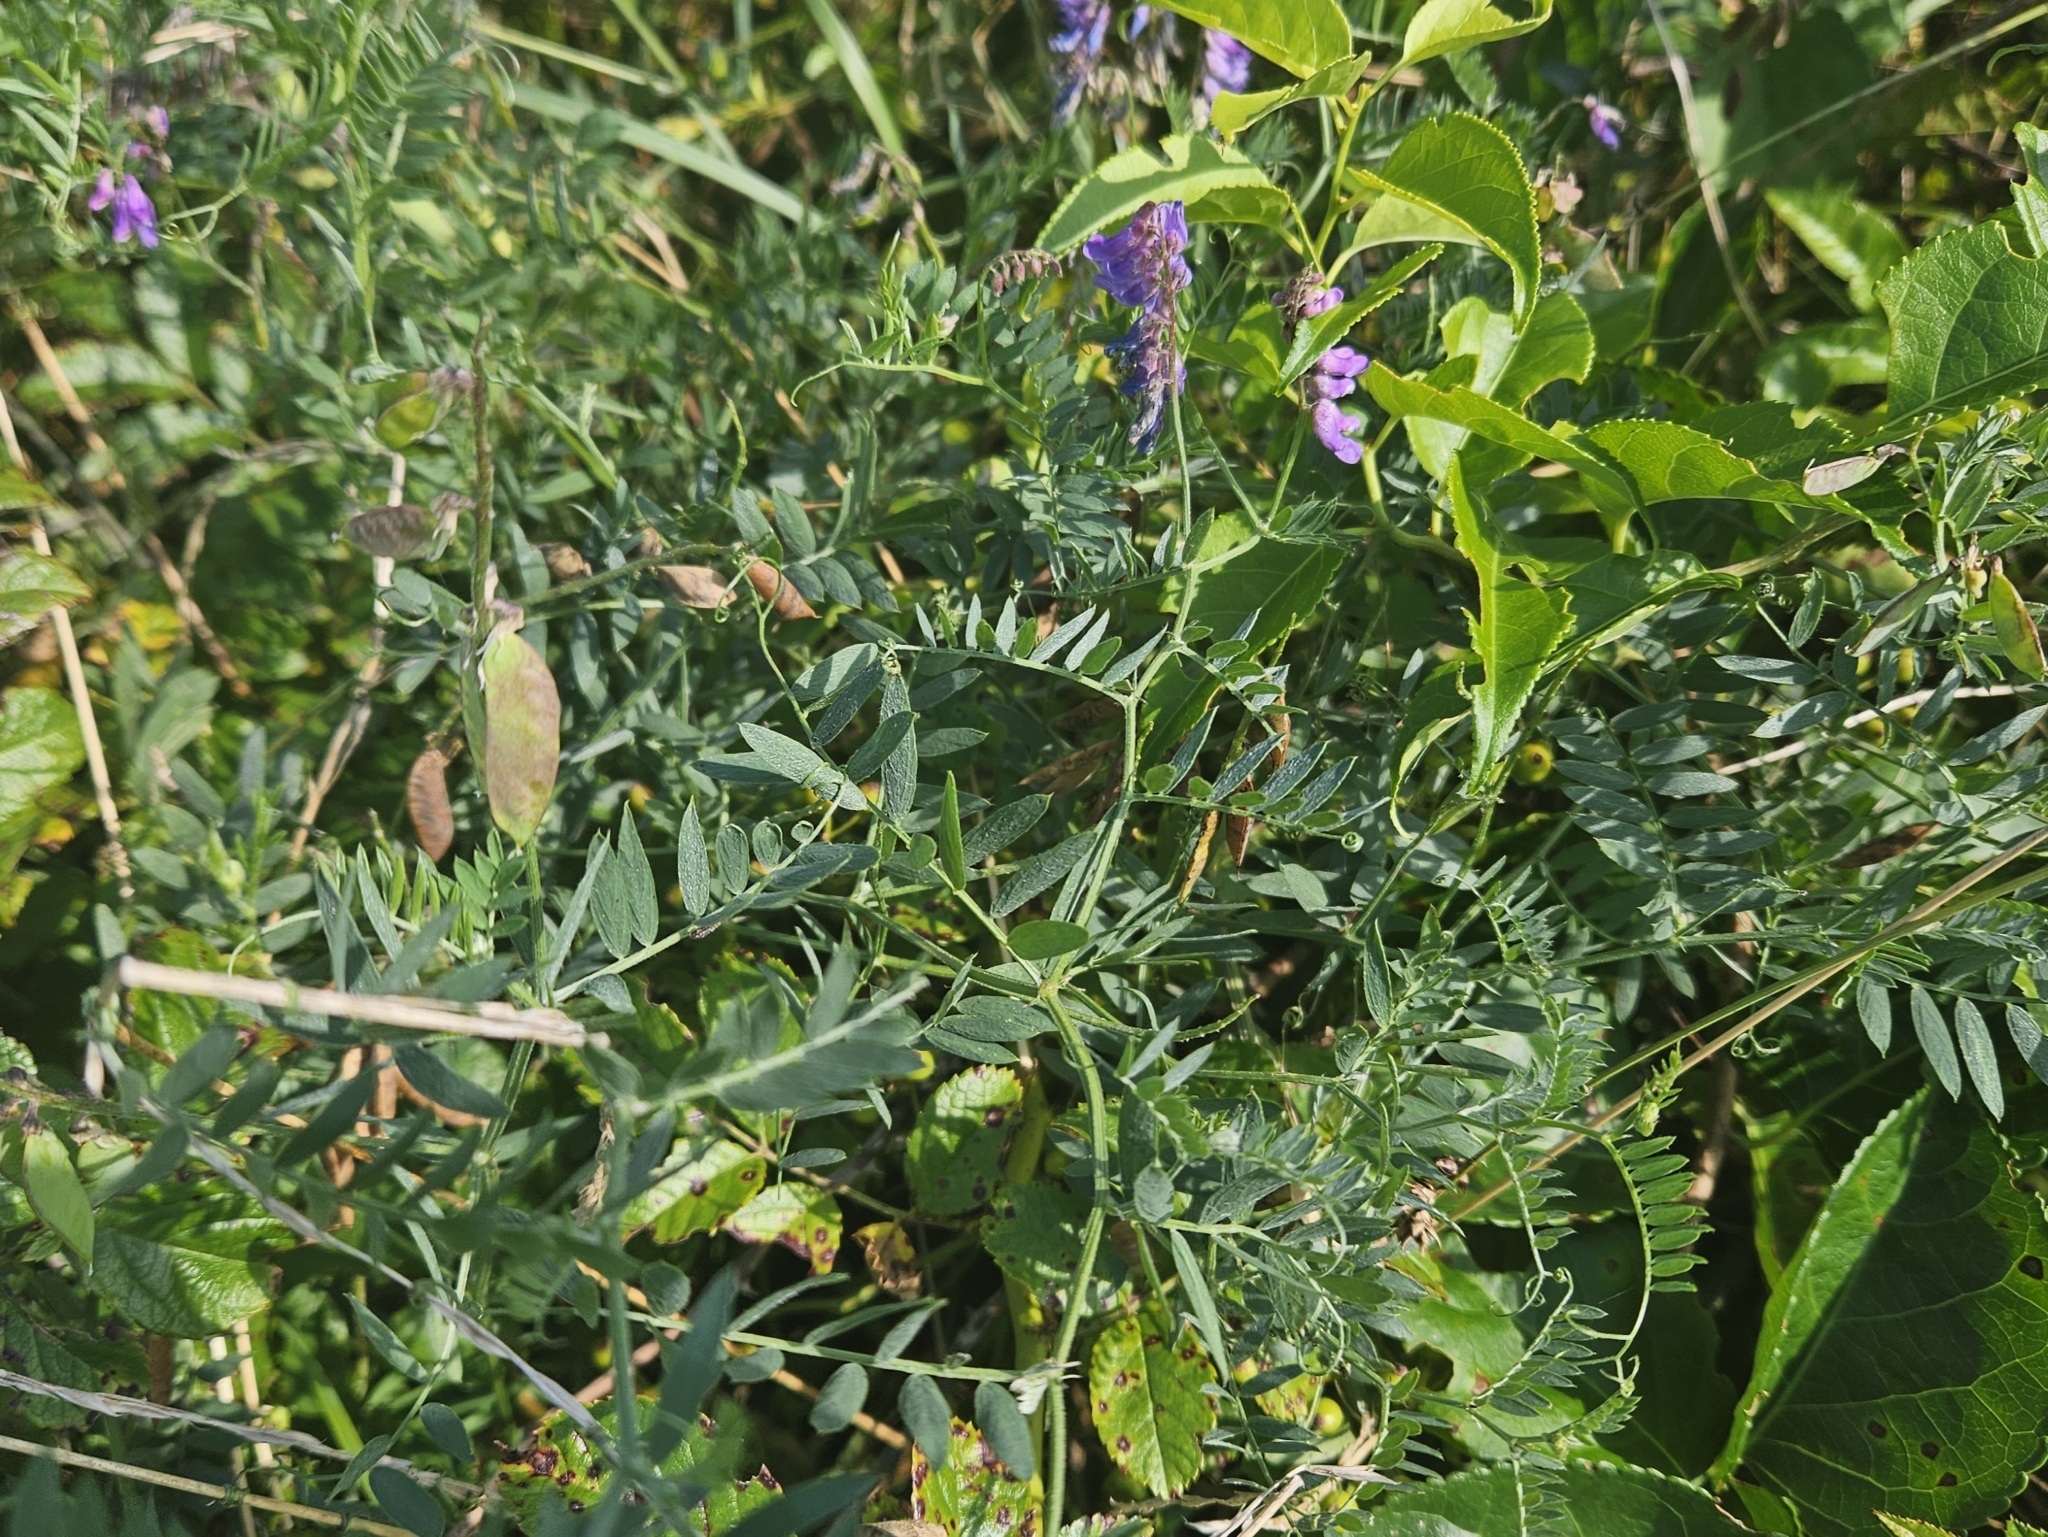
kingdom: Plantae
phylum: Tracheophyta
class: Magnoliopsida
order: Fabales
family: Fabaceae
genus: Vicia
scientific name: Vicia cracca
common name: Bird vetch
